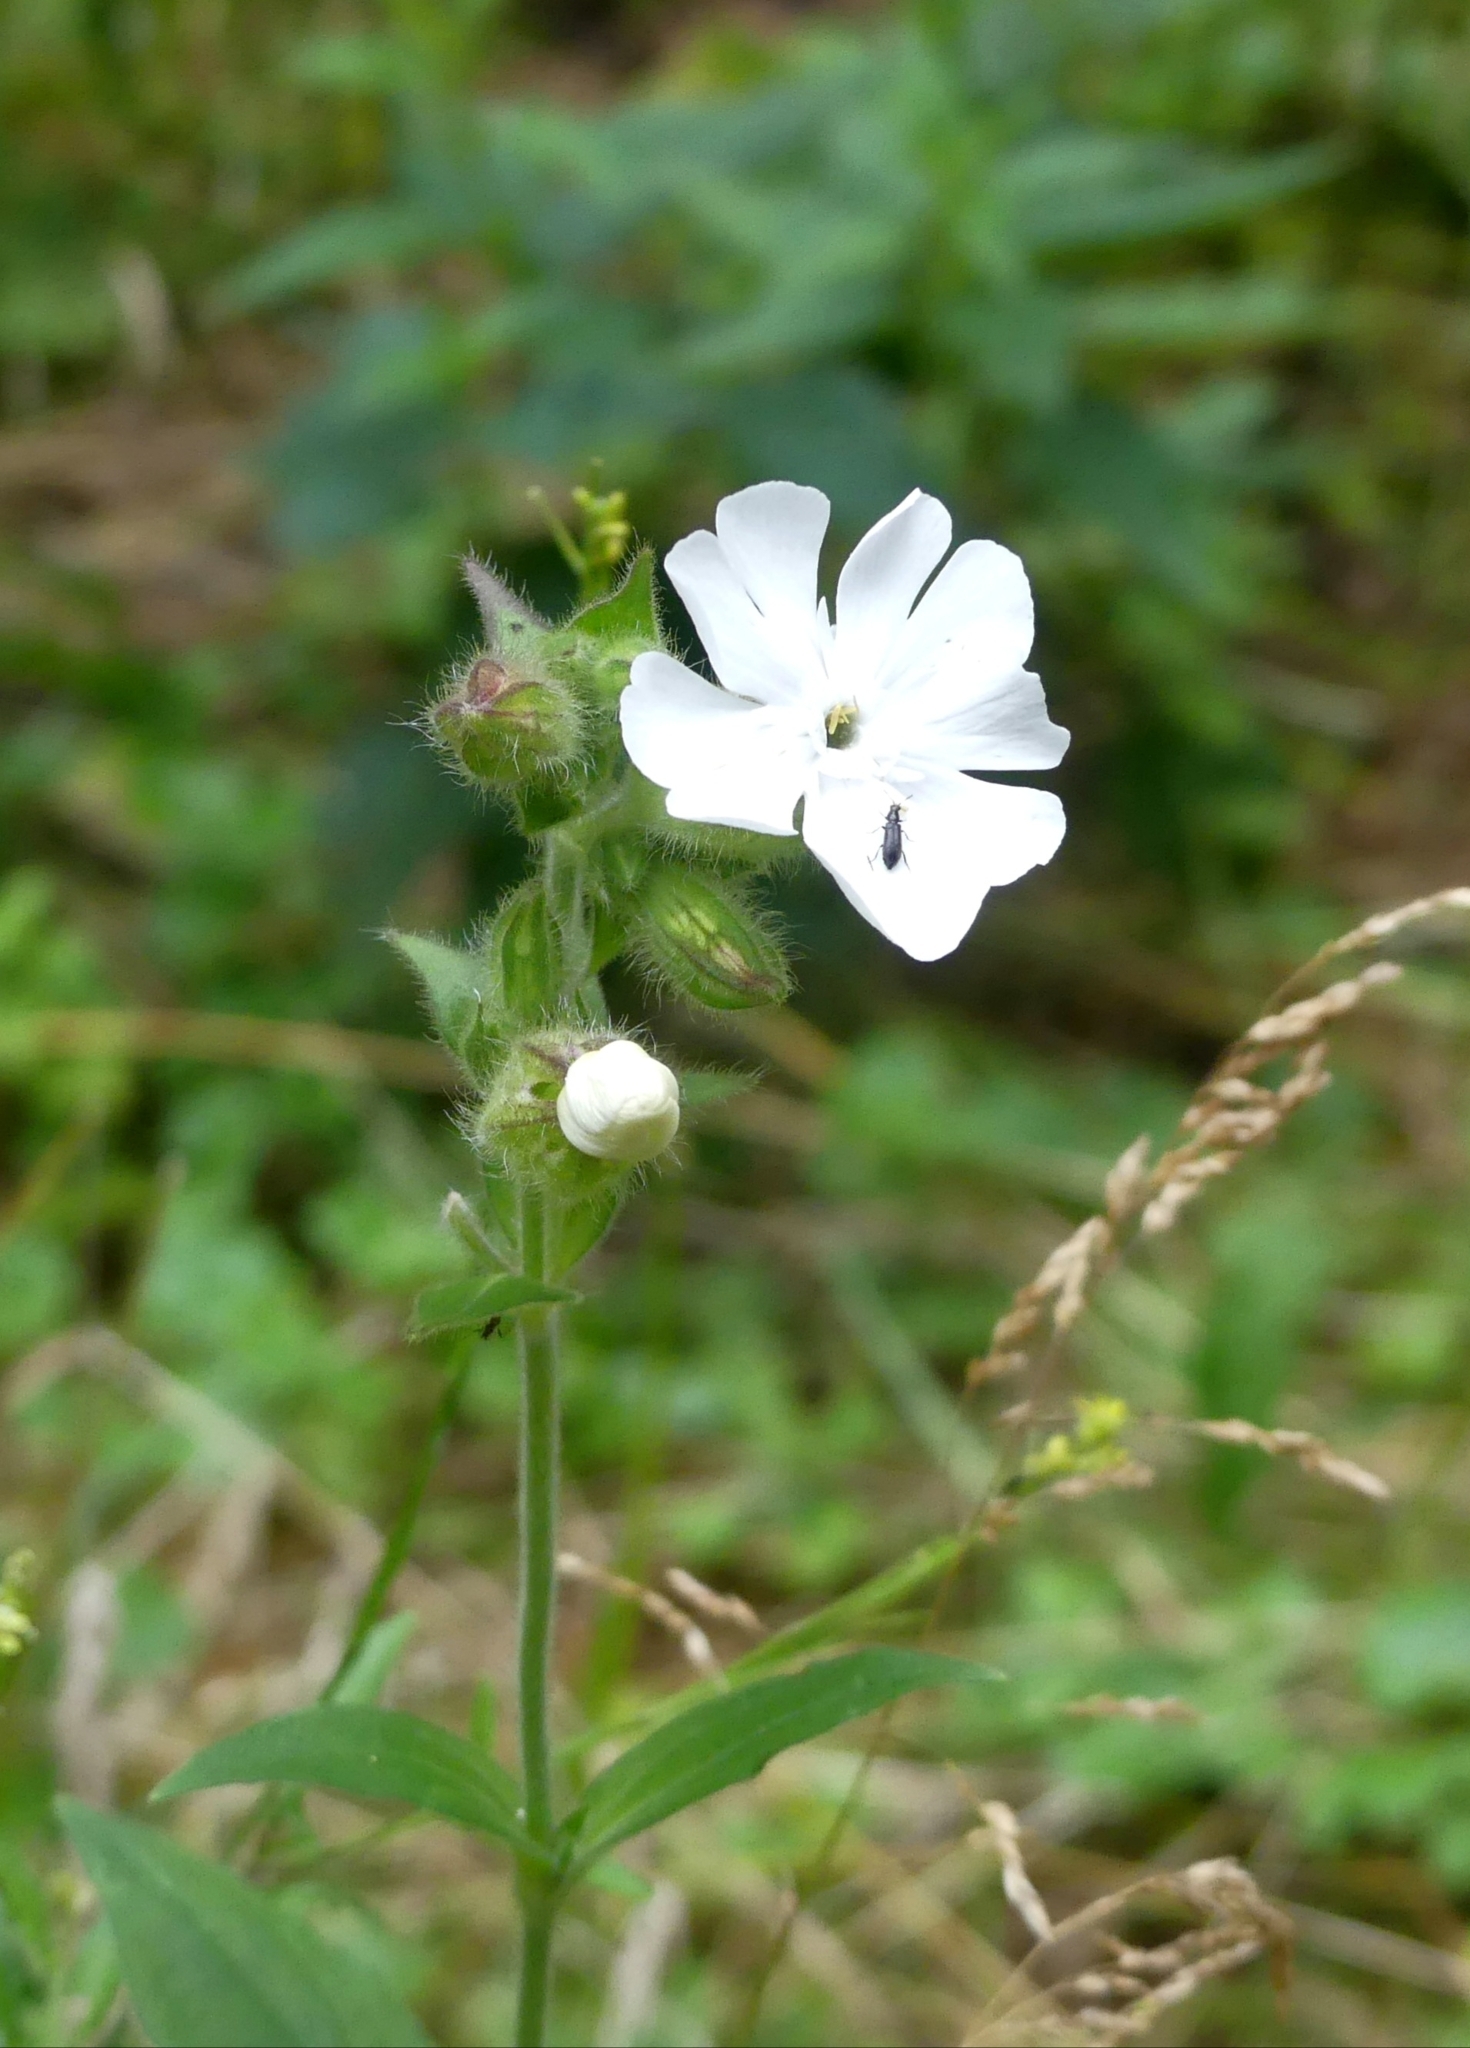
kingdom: Plantae
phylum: Tracheophyta
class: Magnoliopsida
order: Caryophyllales
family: Caryophyllaceae
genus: Silene
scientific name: Silene latifolia
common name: White campion
